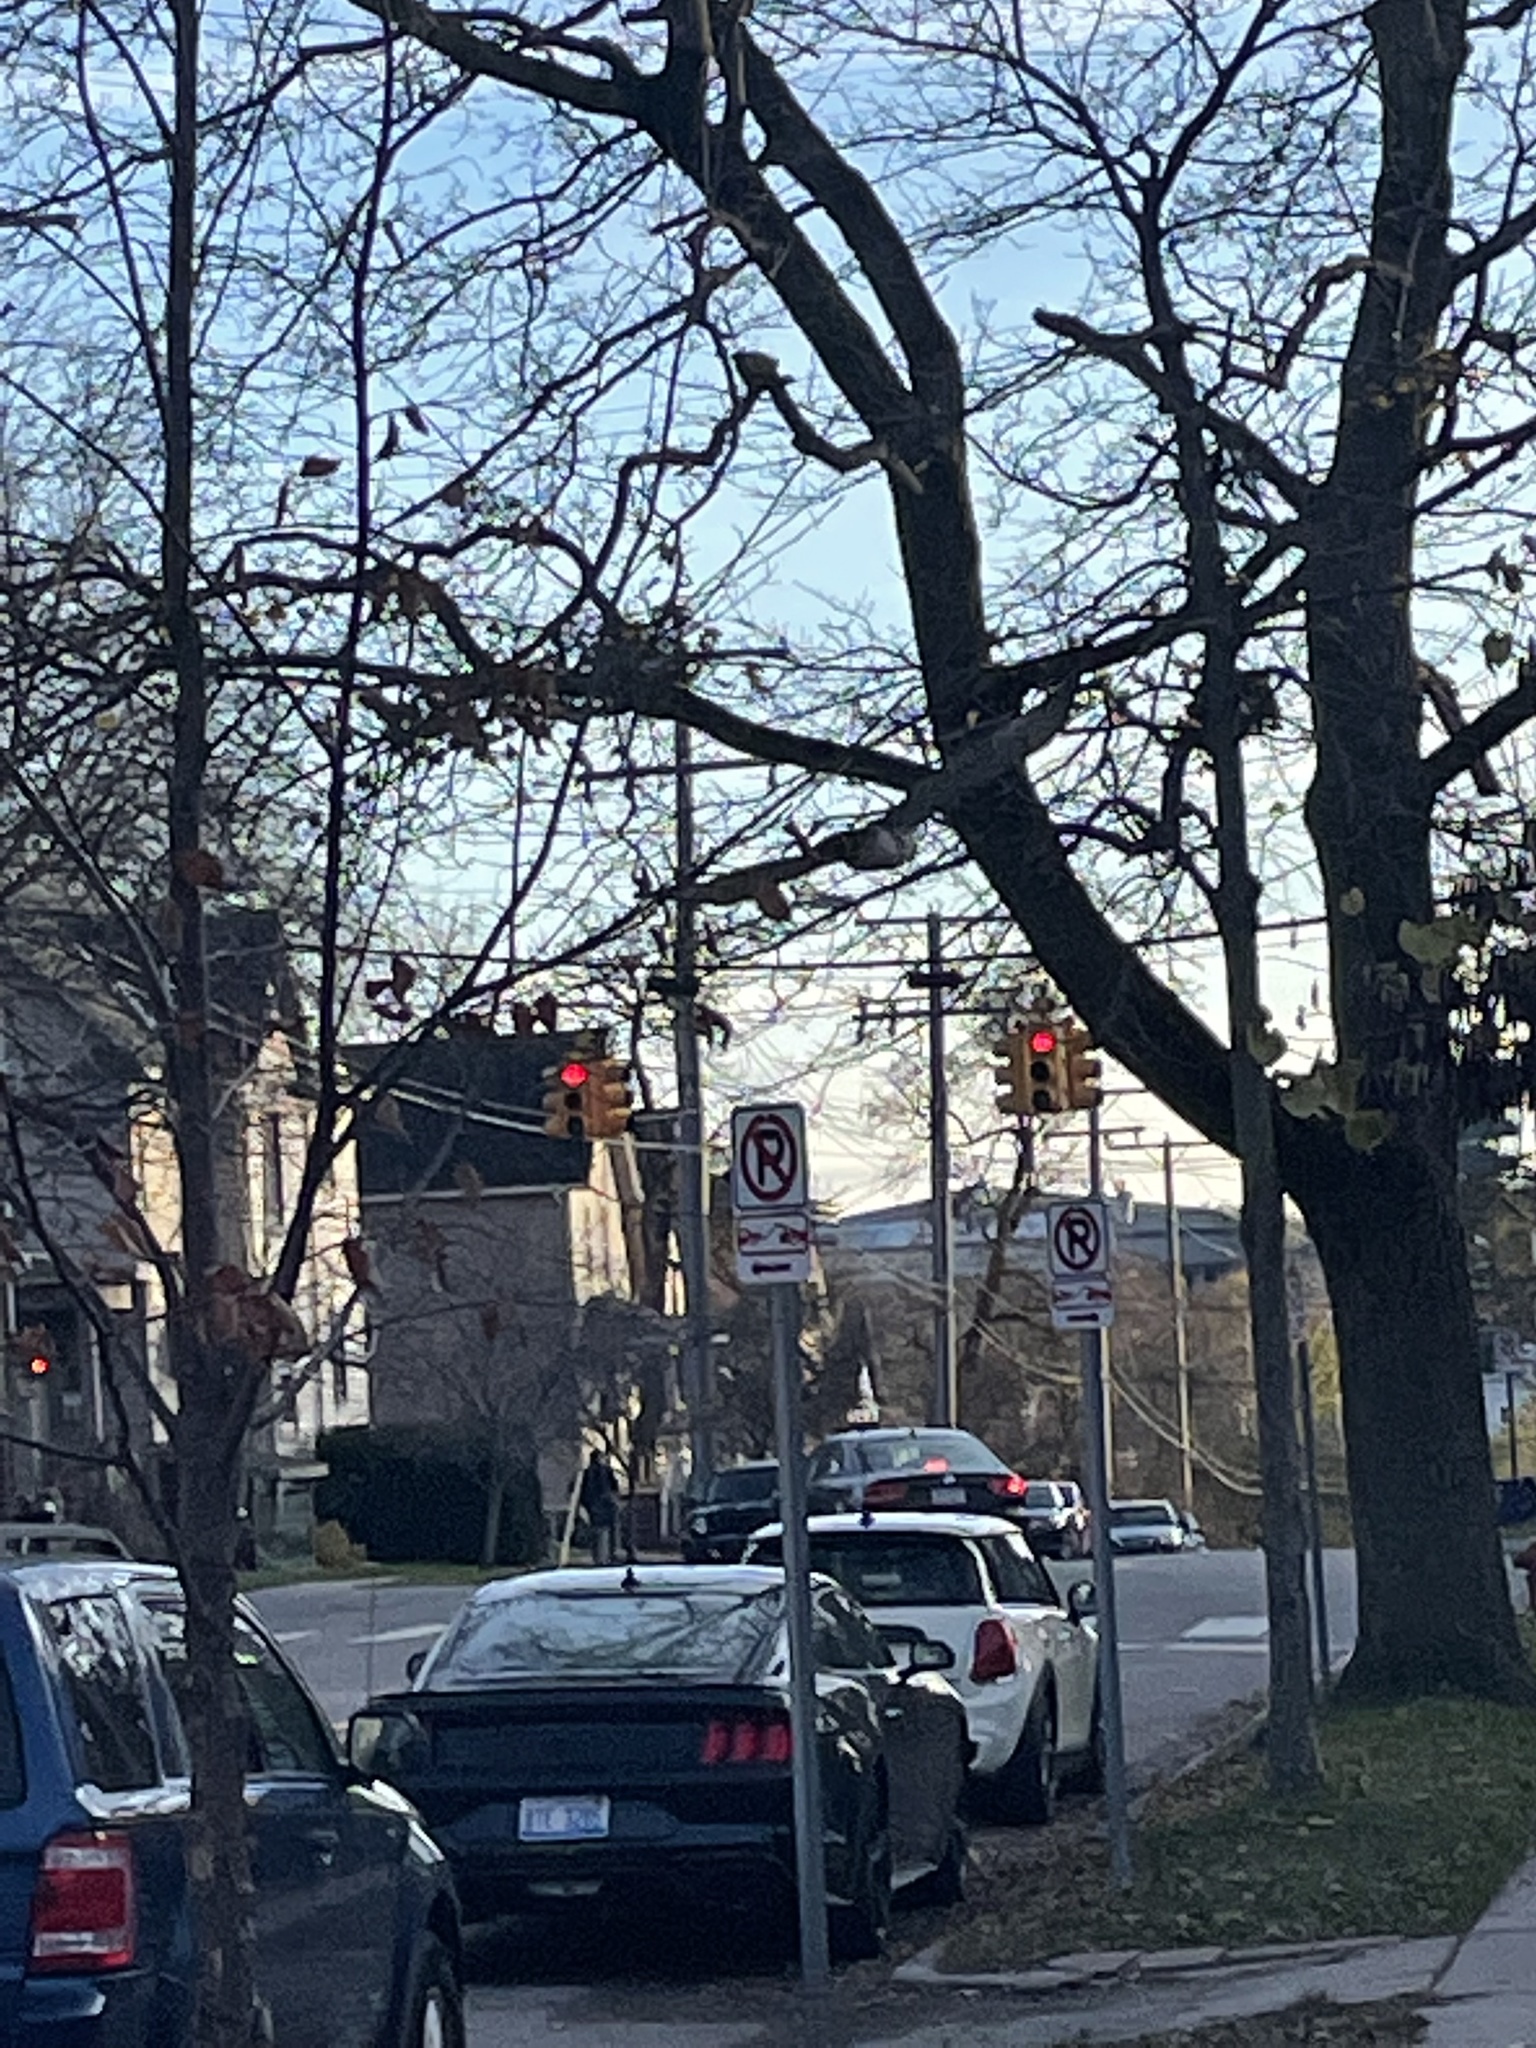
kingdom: Animalia
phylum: Chordata
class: Aves
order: Accipitriformes
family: Accipitridae
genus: Buteo
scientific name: Buteo jamaicensis
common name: Red-tailed hawk
